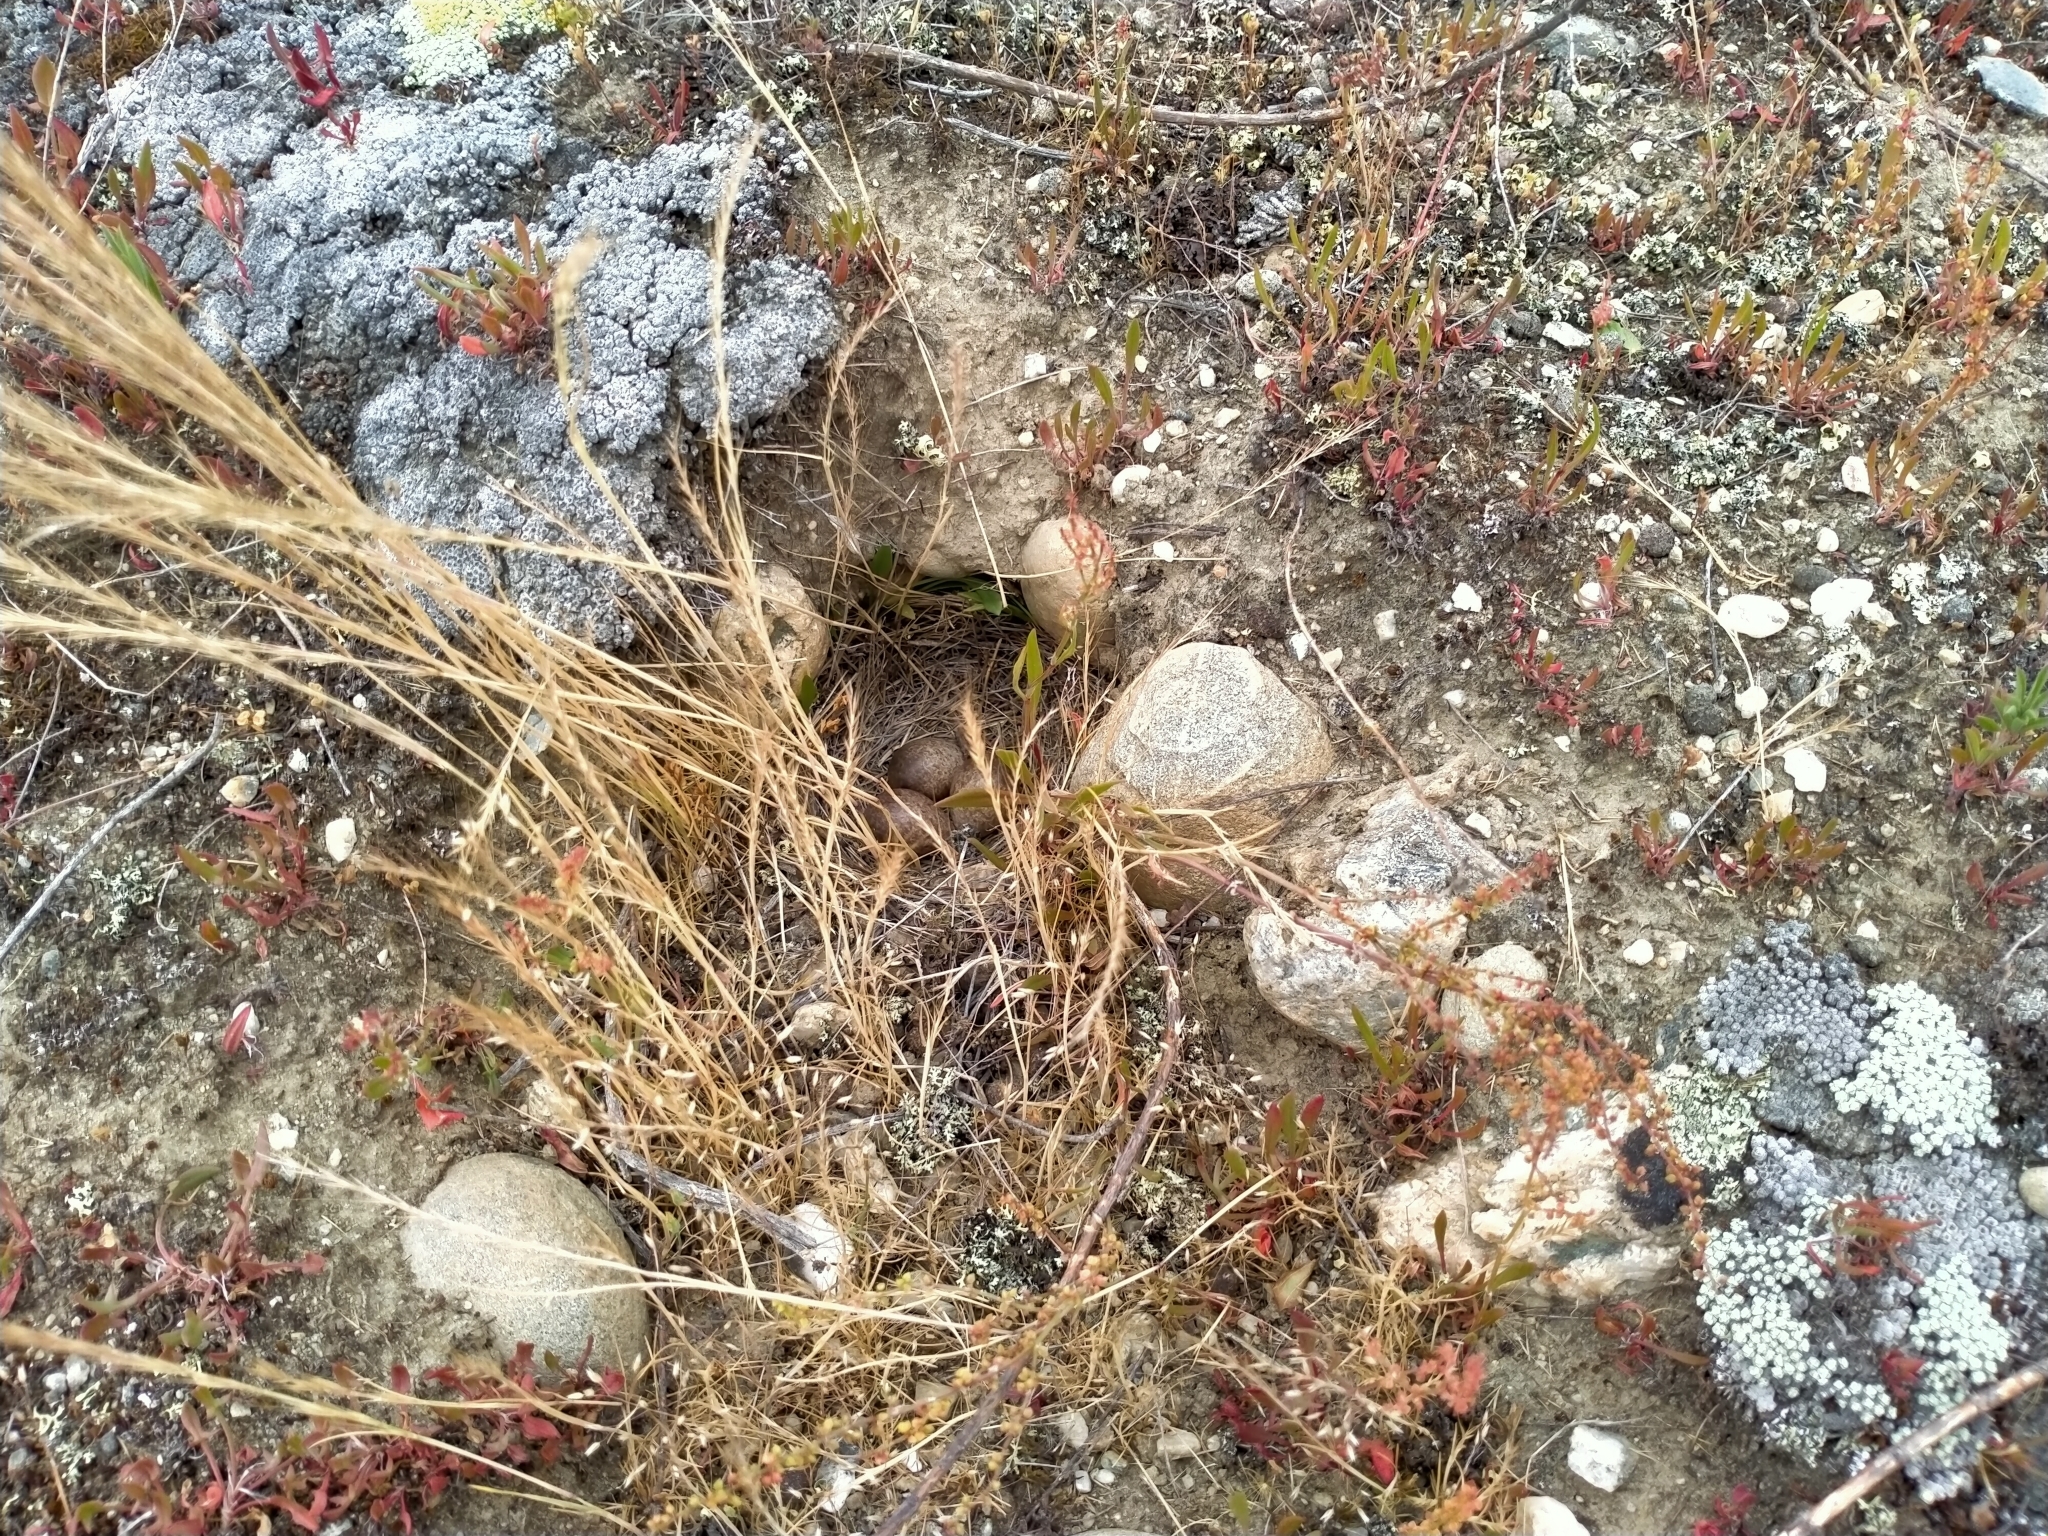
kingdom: Animalia
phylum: Chordata
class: Aves
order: Passeriformes
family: Alaudidae
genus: Alauda
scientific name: Alauda arvensis
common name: Eurasian skylark
